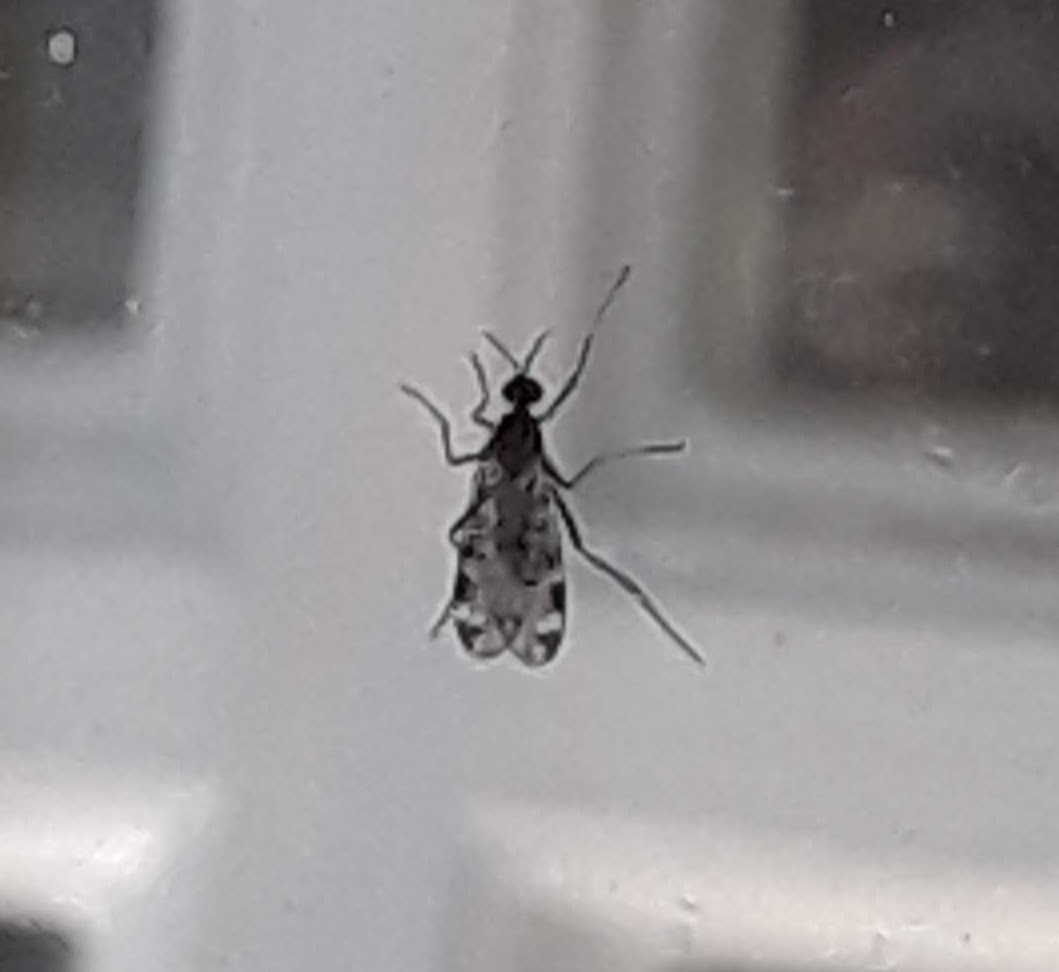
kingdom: Animalia
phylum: Arthropoda
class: Insecta
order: Diptera
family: Anisopodidae
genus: Sylvicola
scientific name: Sylvicola alternata
